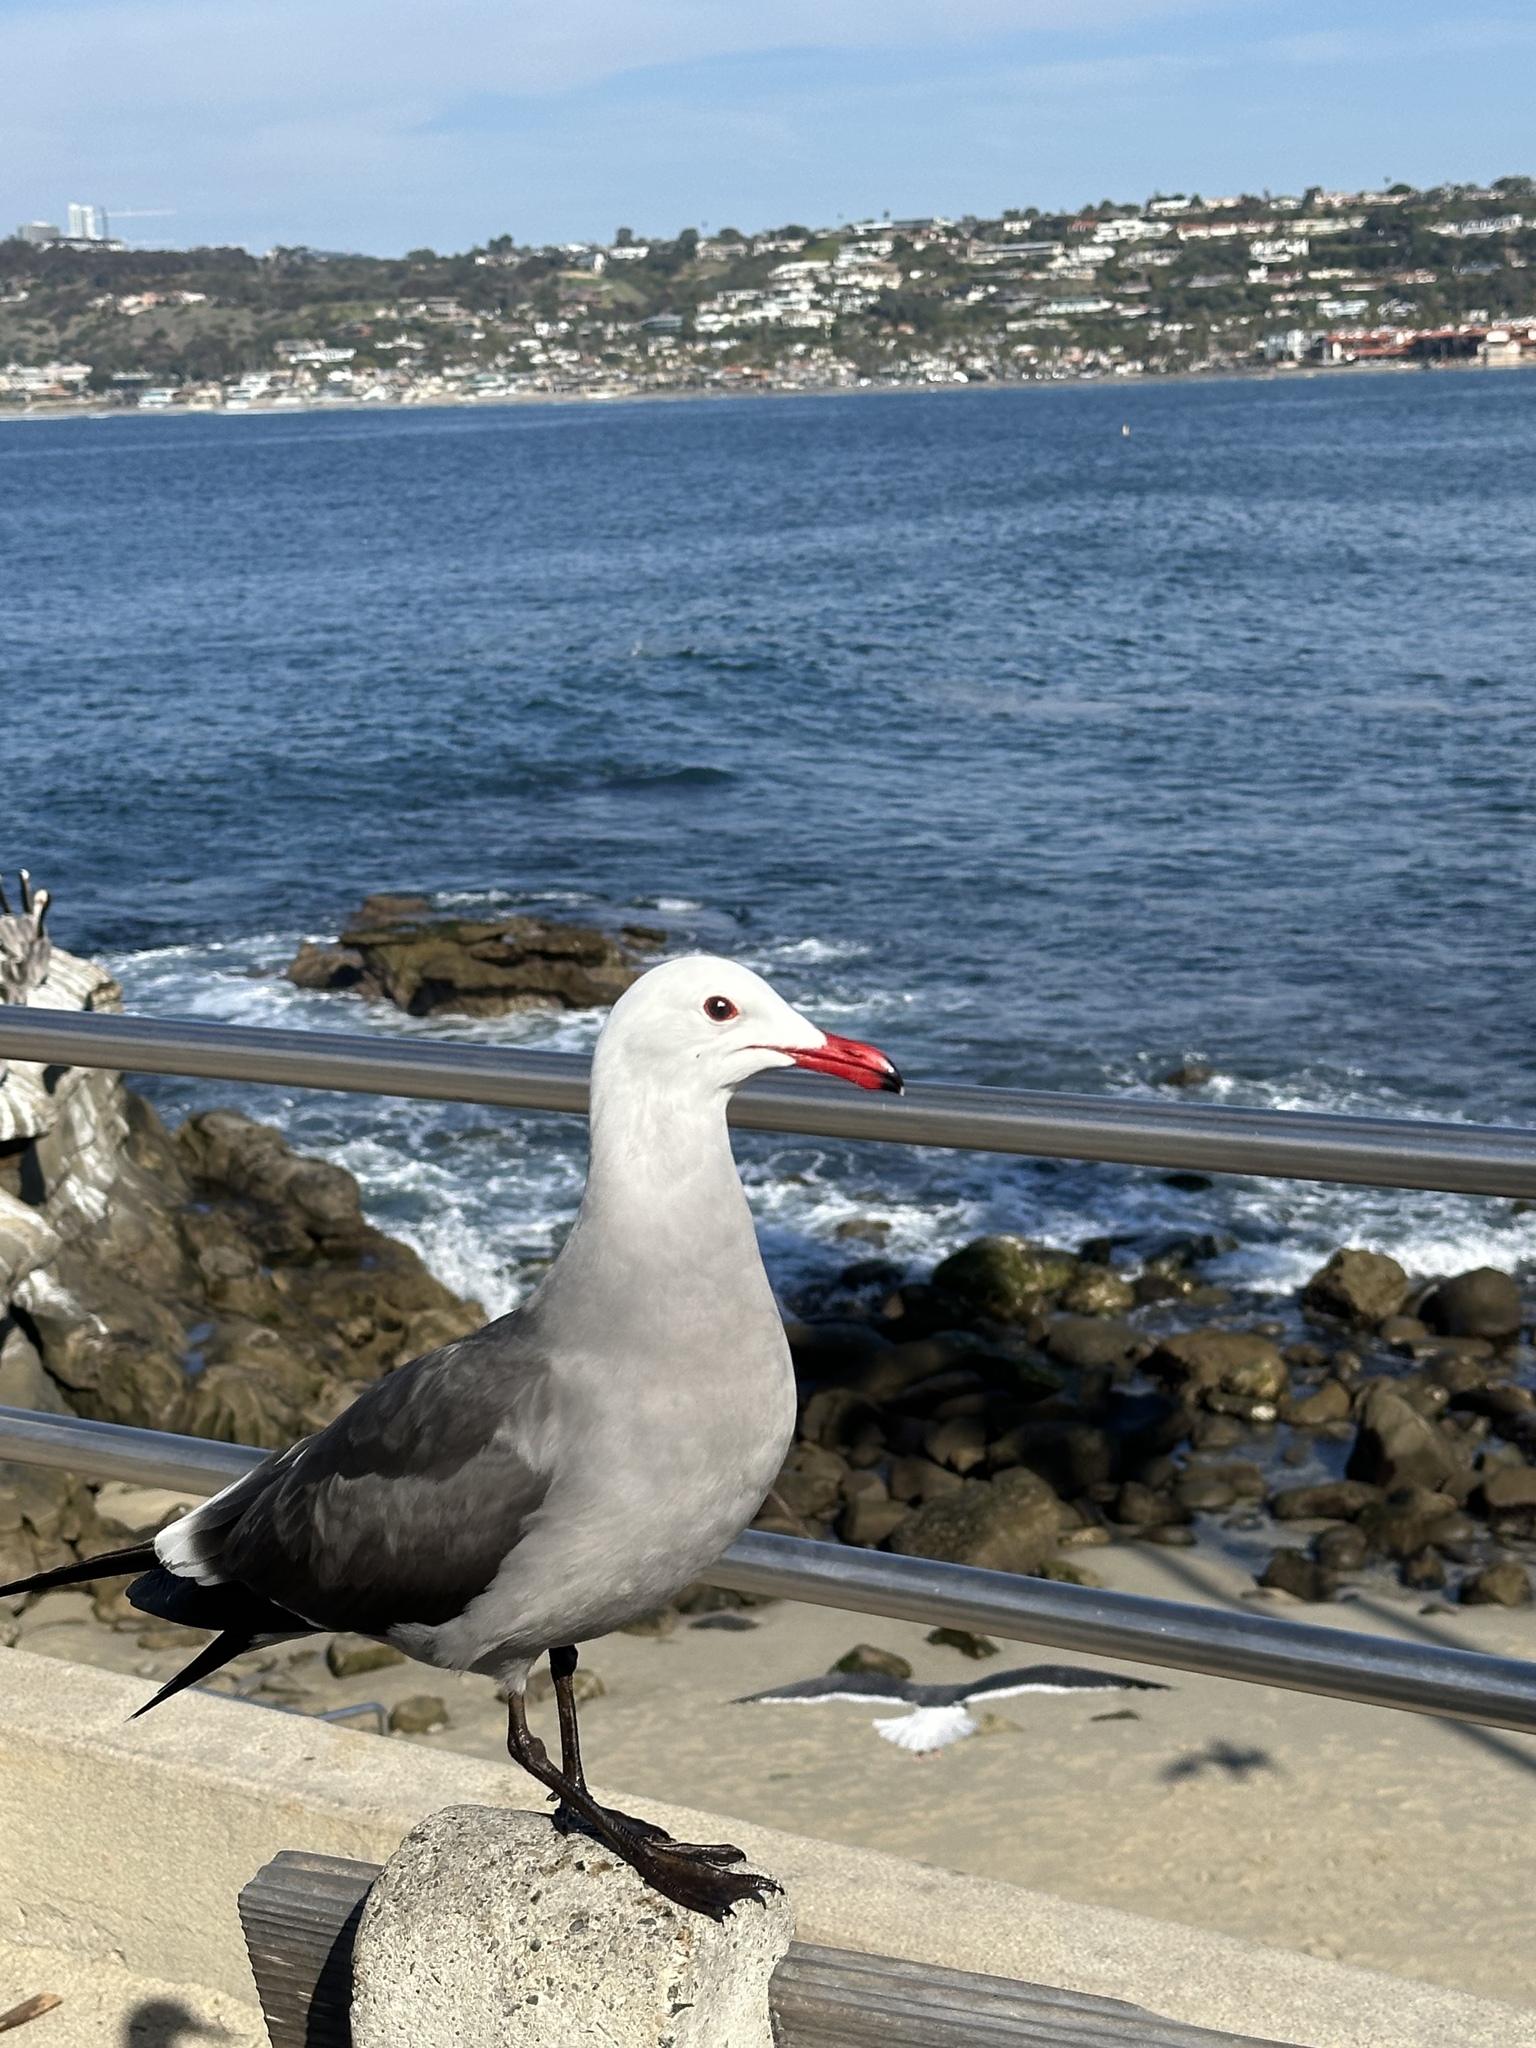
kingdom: Animalia
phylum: Chordata
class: Aves
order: Charadriiformes
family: Laridae
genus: Larus
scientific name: Larus heermanni
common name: Heermann's gull
